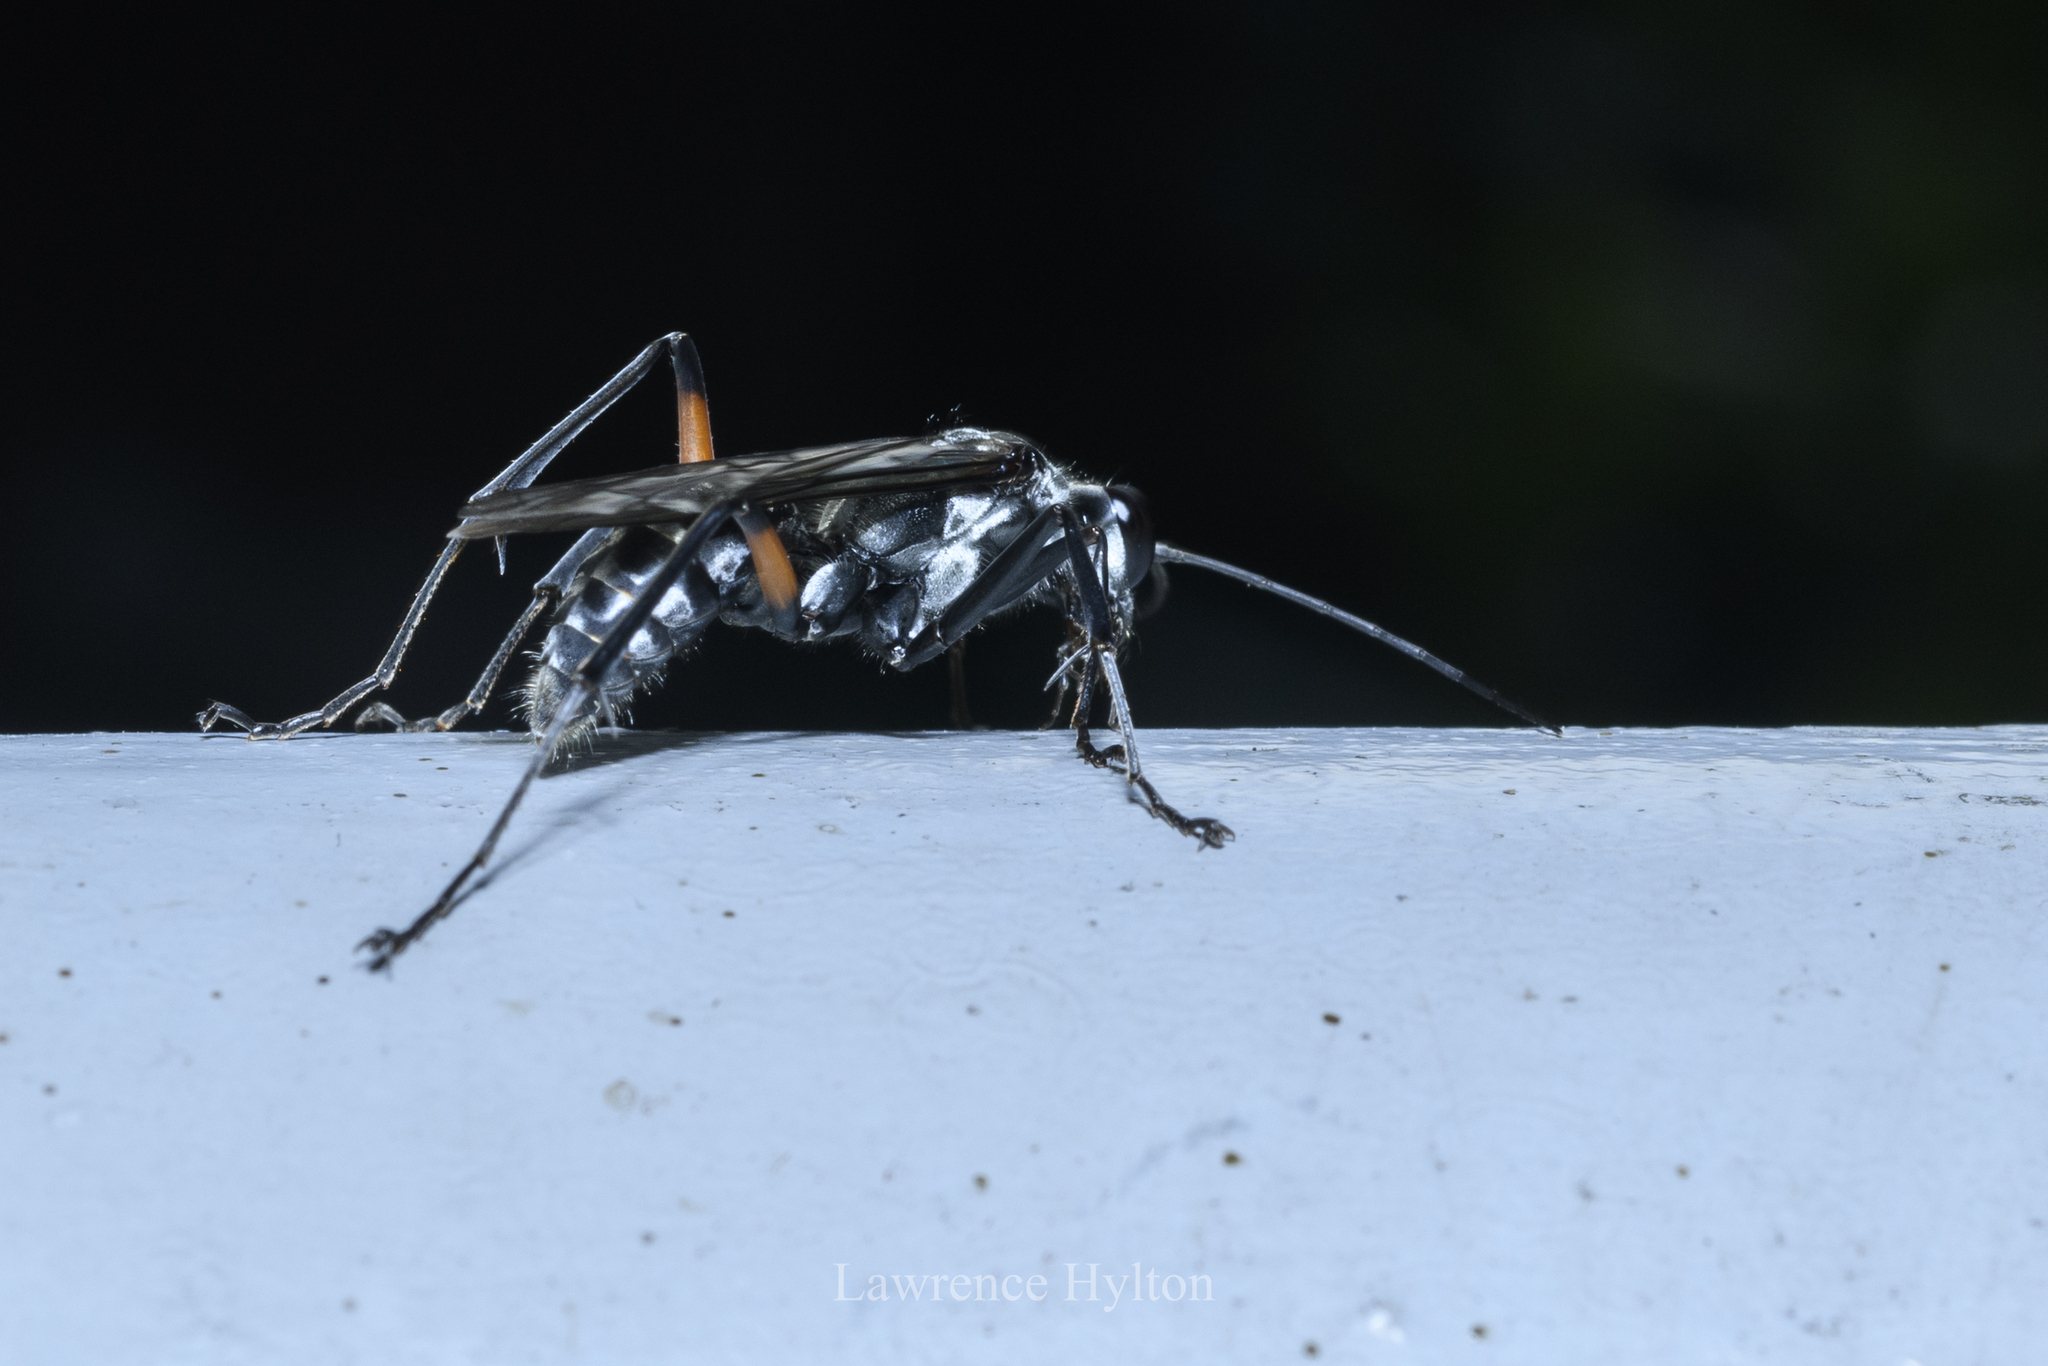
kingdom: Animalia
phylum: Arthropoda
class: Insecta
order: Hymenoptera
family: Pompilidae
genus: Paragenia
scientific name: Paragenia argentifrons
